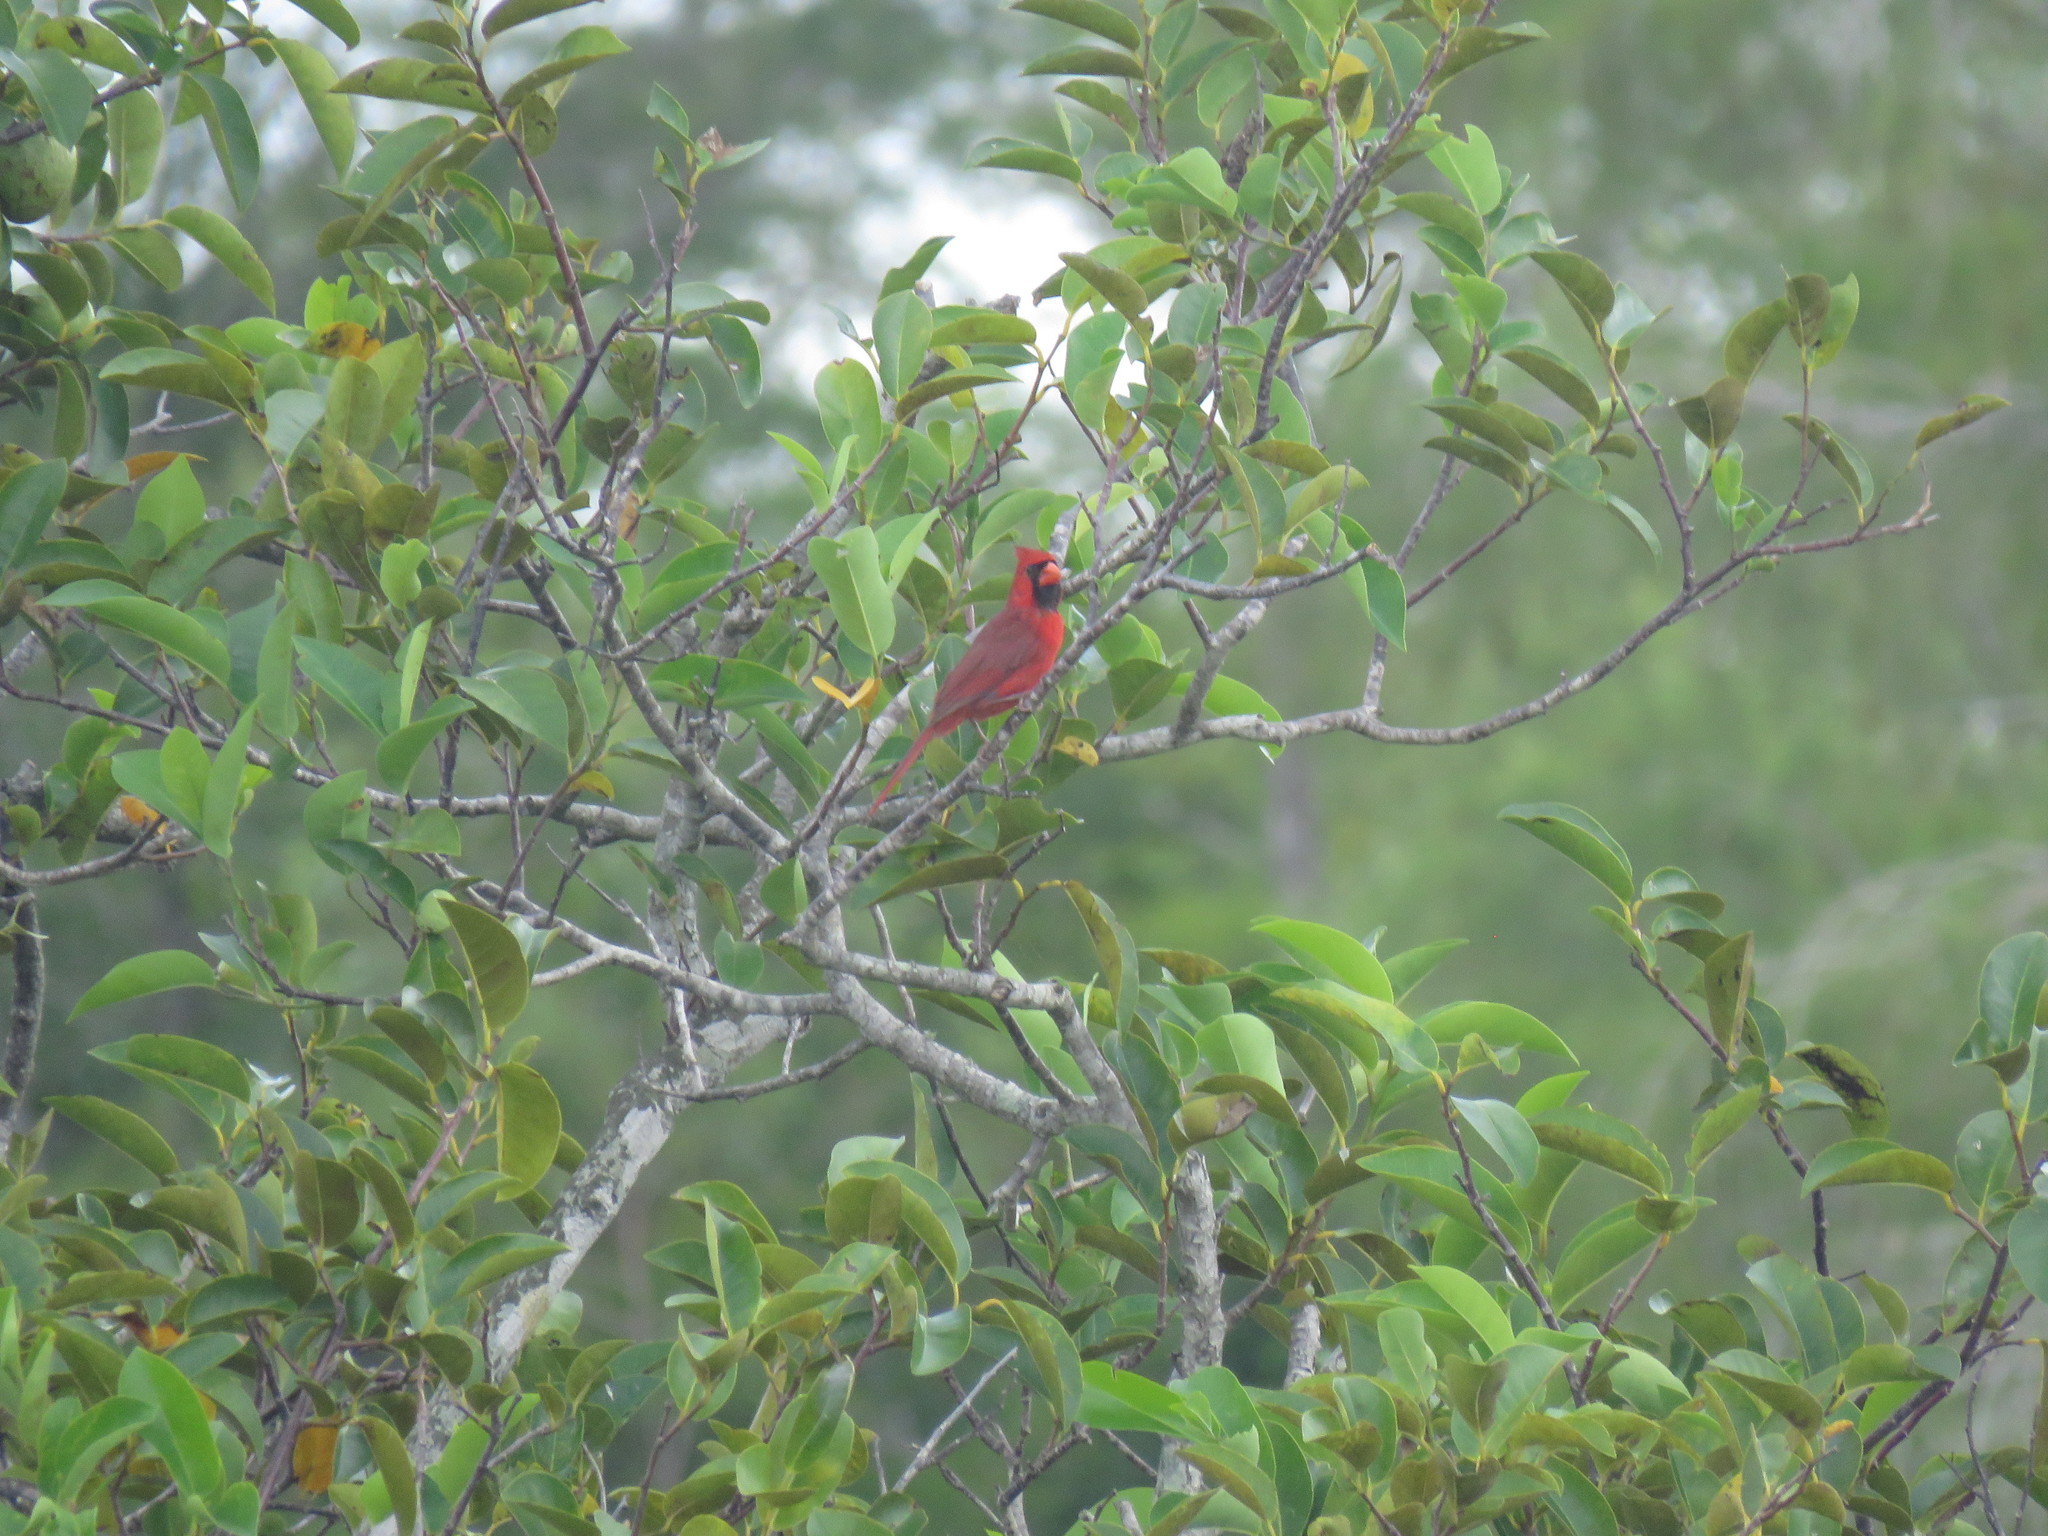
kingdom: Animalia
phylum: Chordata
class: Aves
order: Passeriformes
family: Cardinalidae
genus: Cardinalis
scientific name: Cardinalis cardinalis
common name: Northern cardinal
